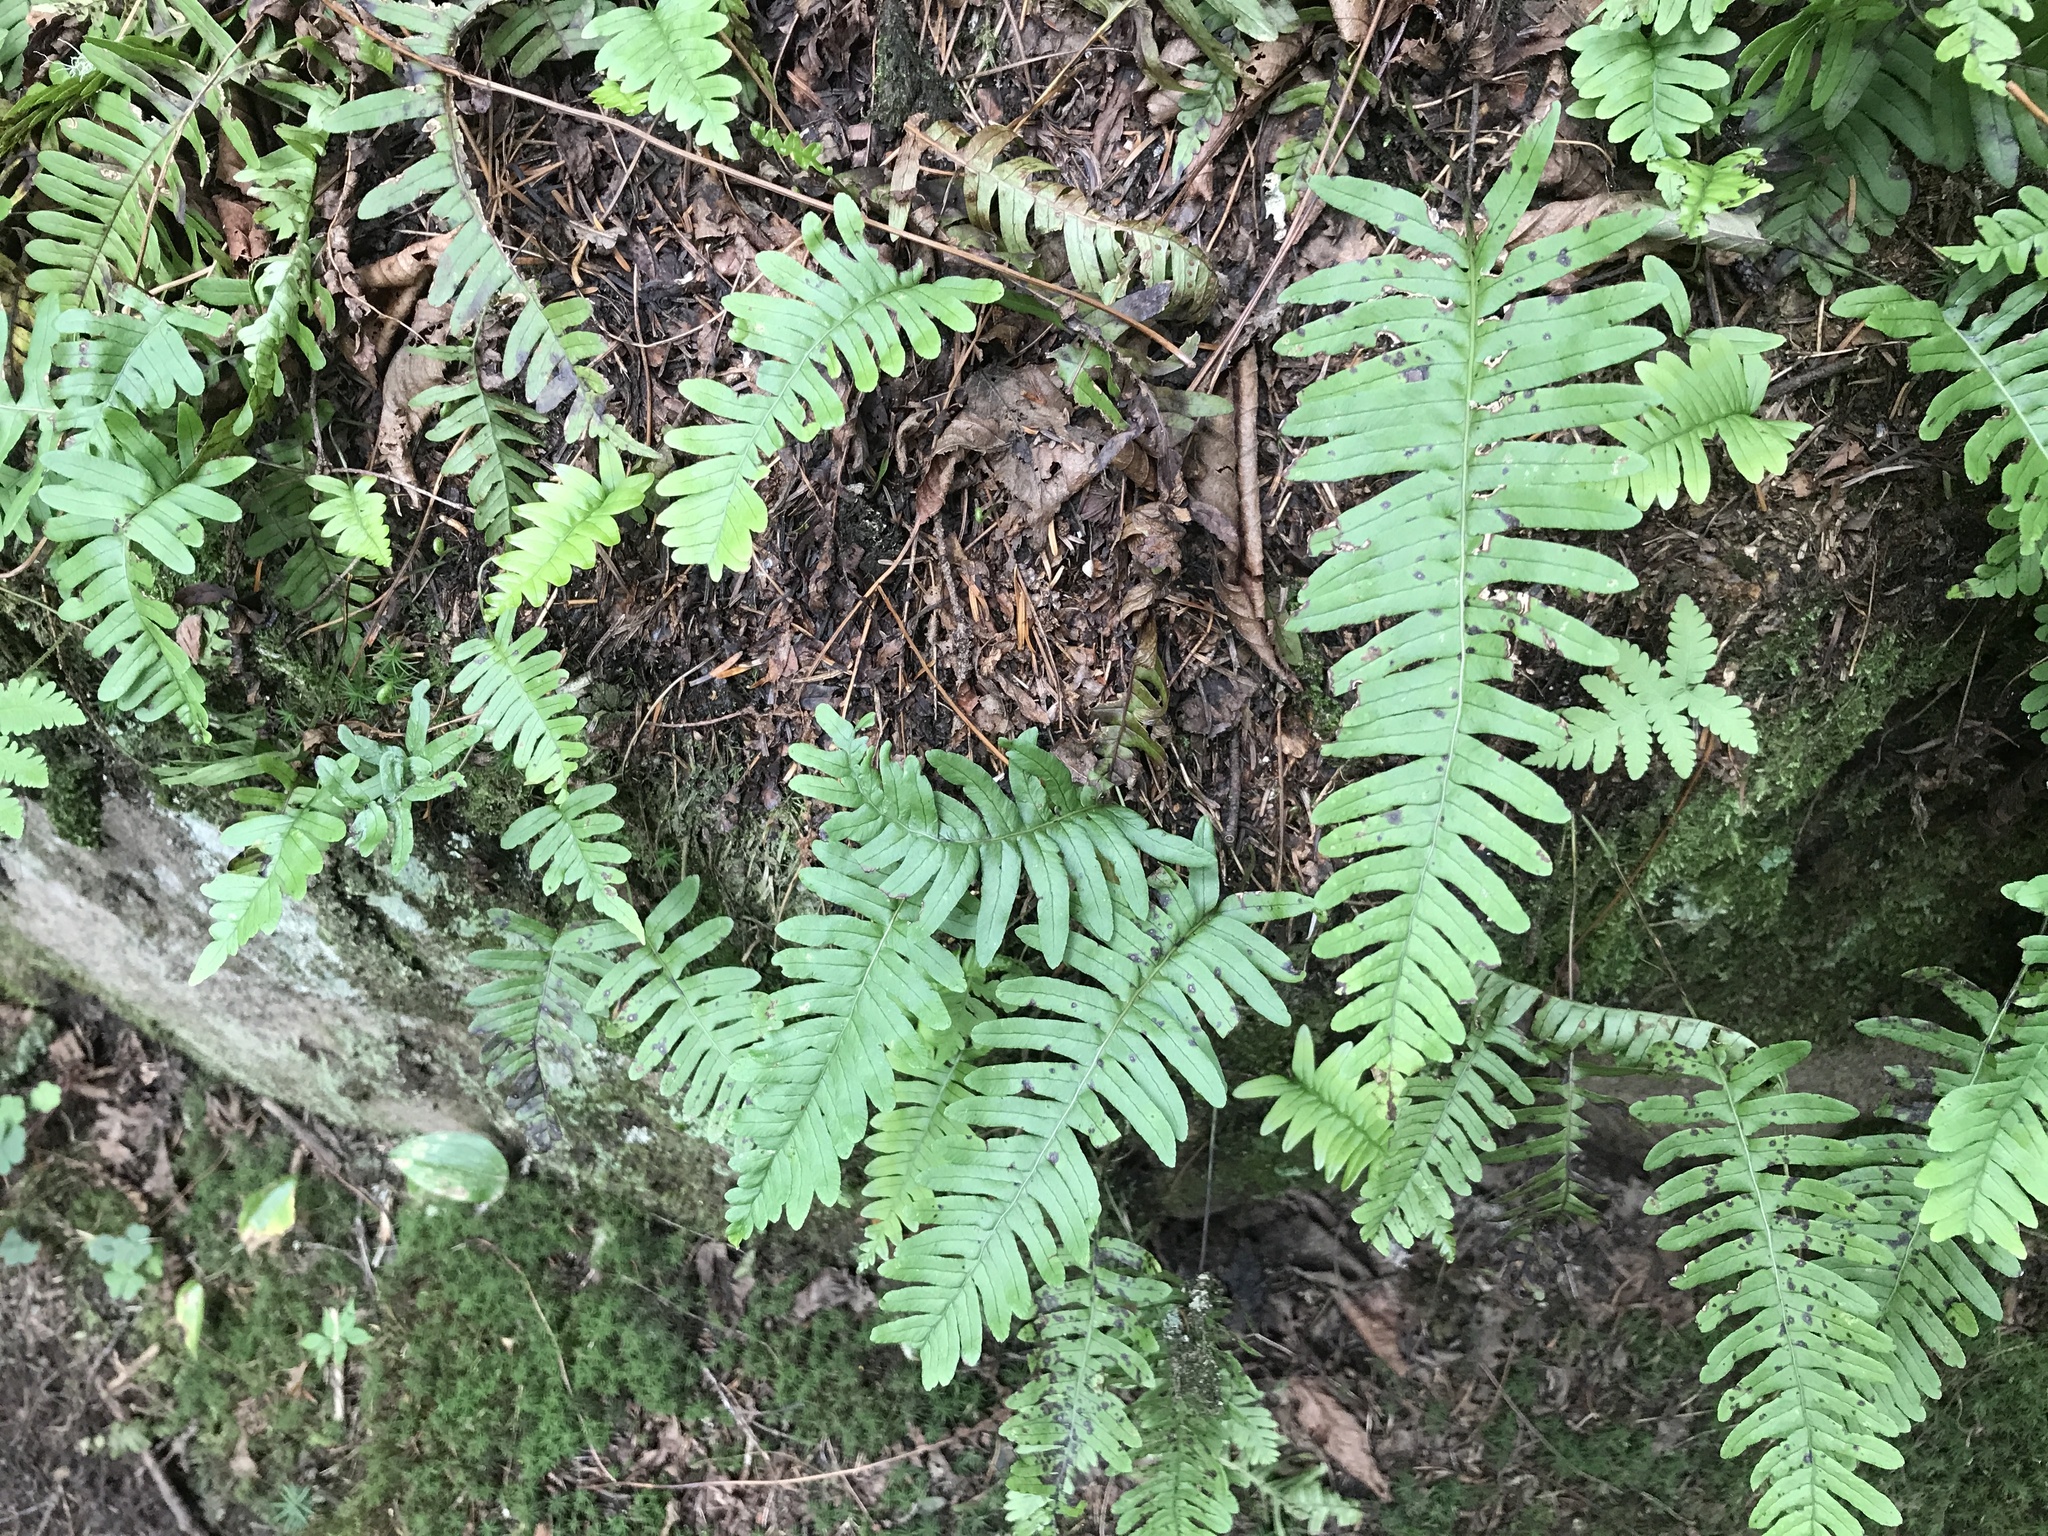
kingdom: Plantae
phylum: Tracheophyta
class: Polypodiopsida
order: Polypodiales
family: Polypodiaceae
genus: Polypodium
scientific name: Polypodium virginianum
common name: American wall fern
